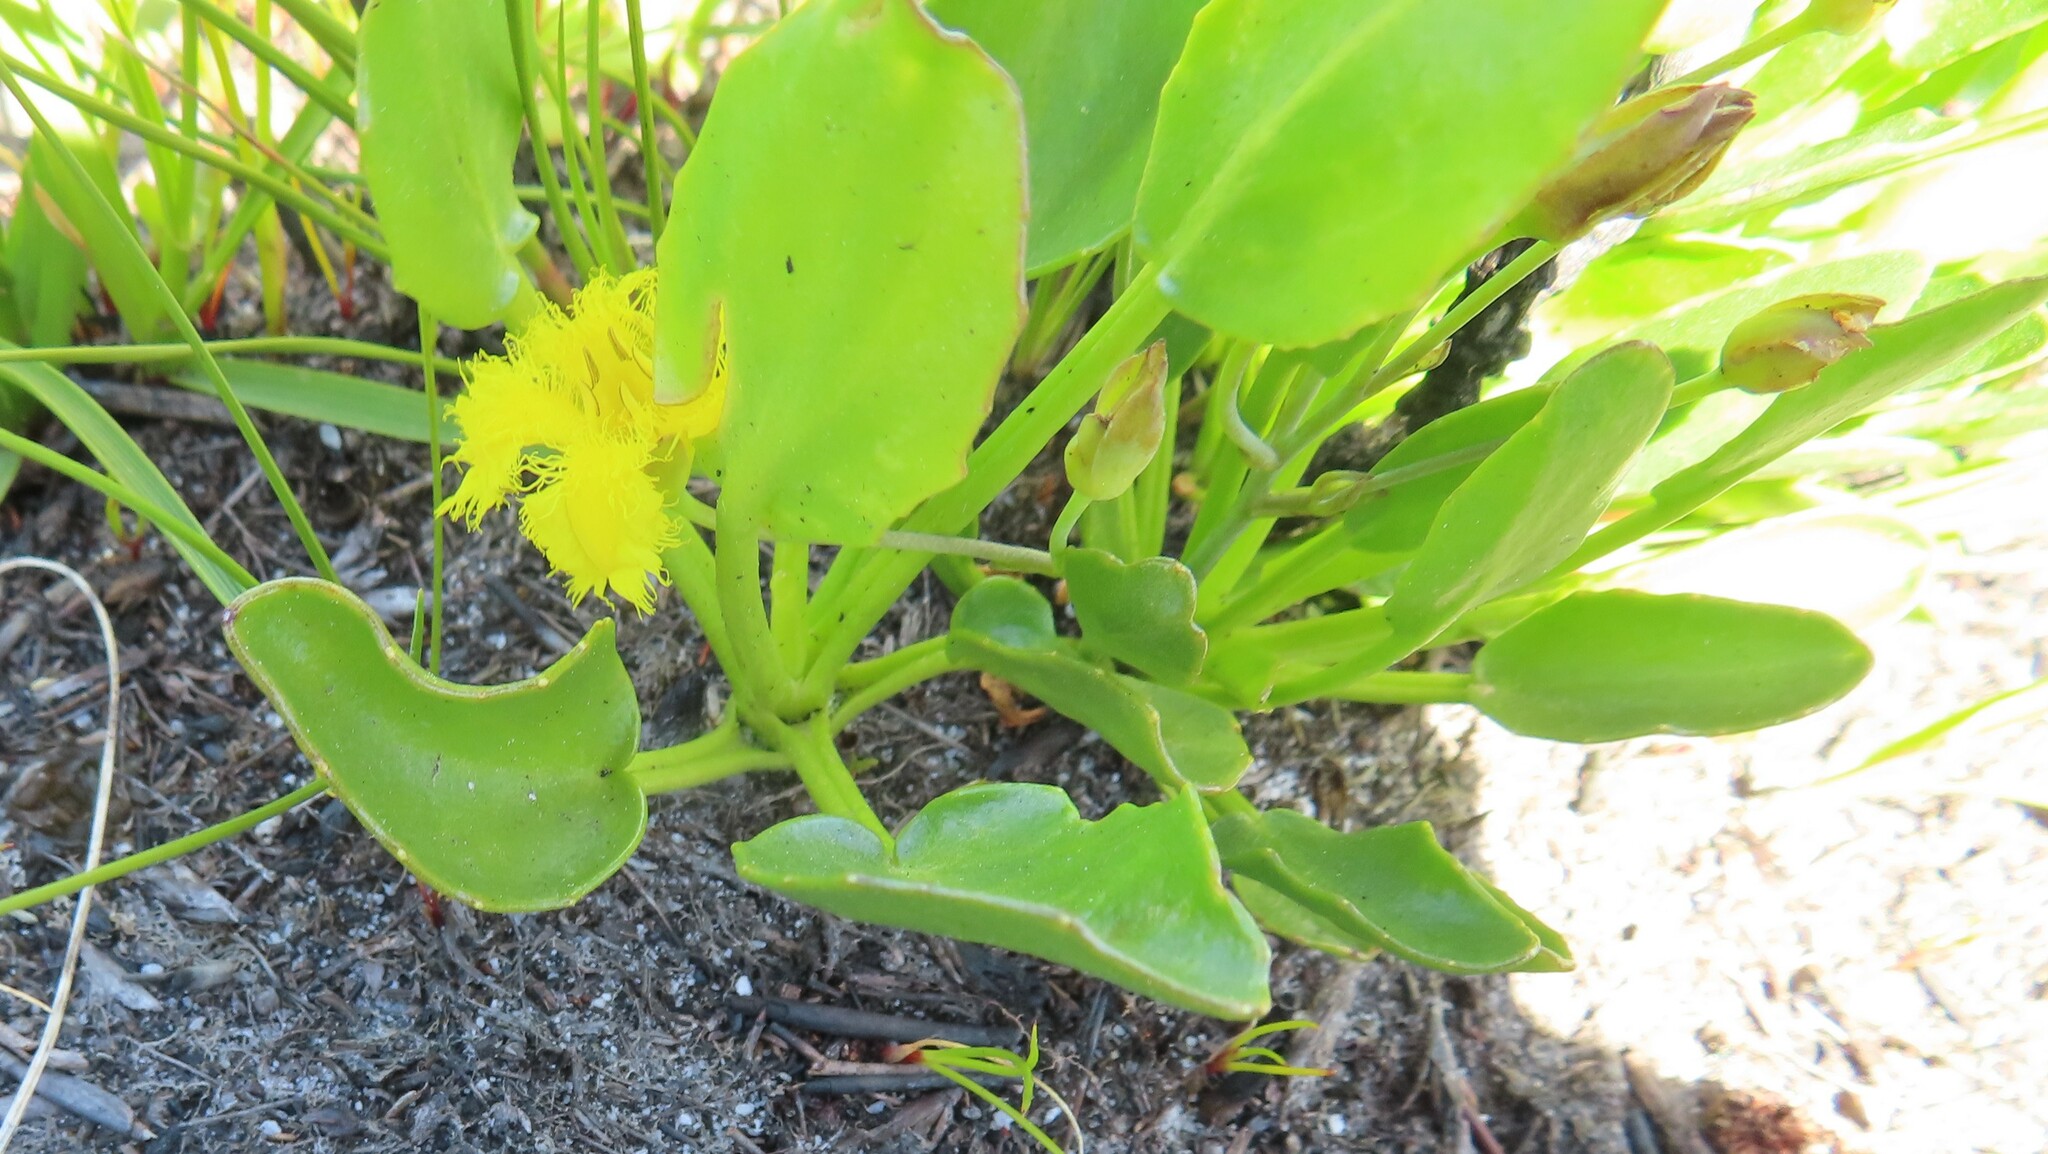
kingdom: Plantae
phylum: Tracheophyta
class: Magnoliopsida
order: Asterales
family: Menyanthaceae
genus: Villarsia
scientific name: Villarsia manningiana
